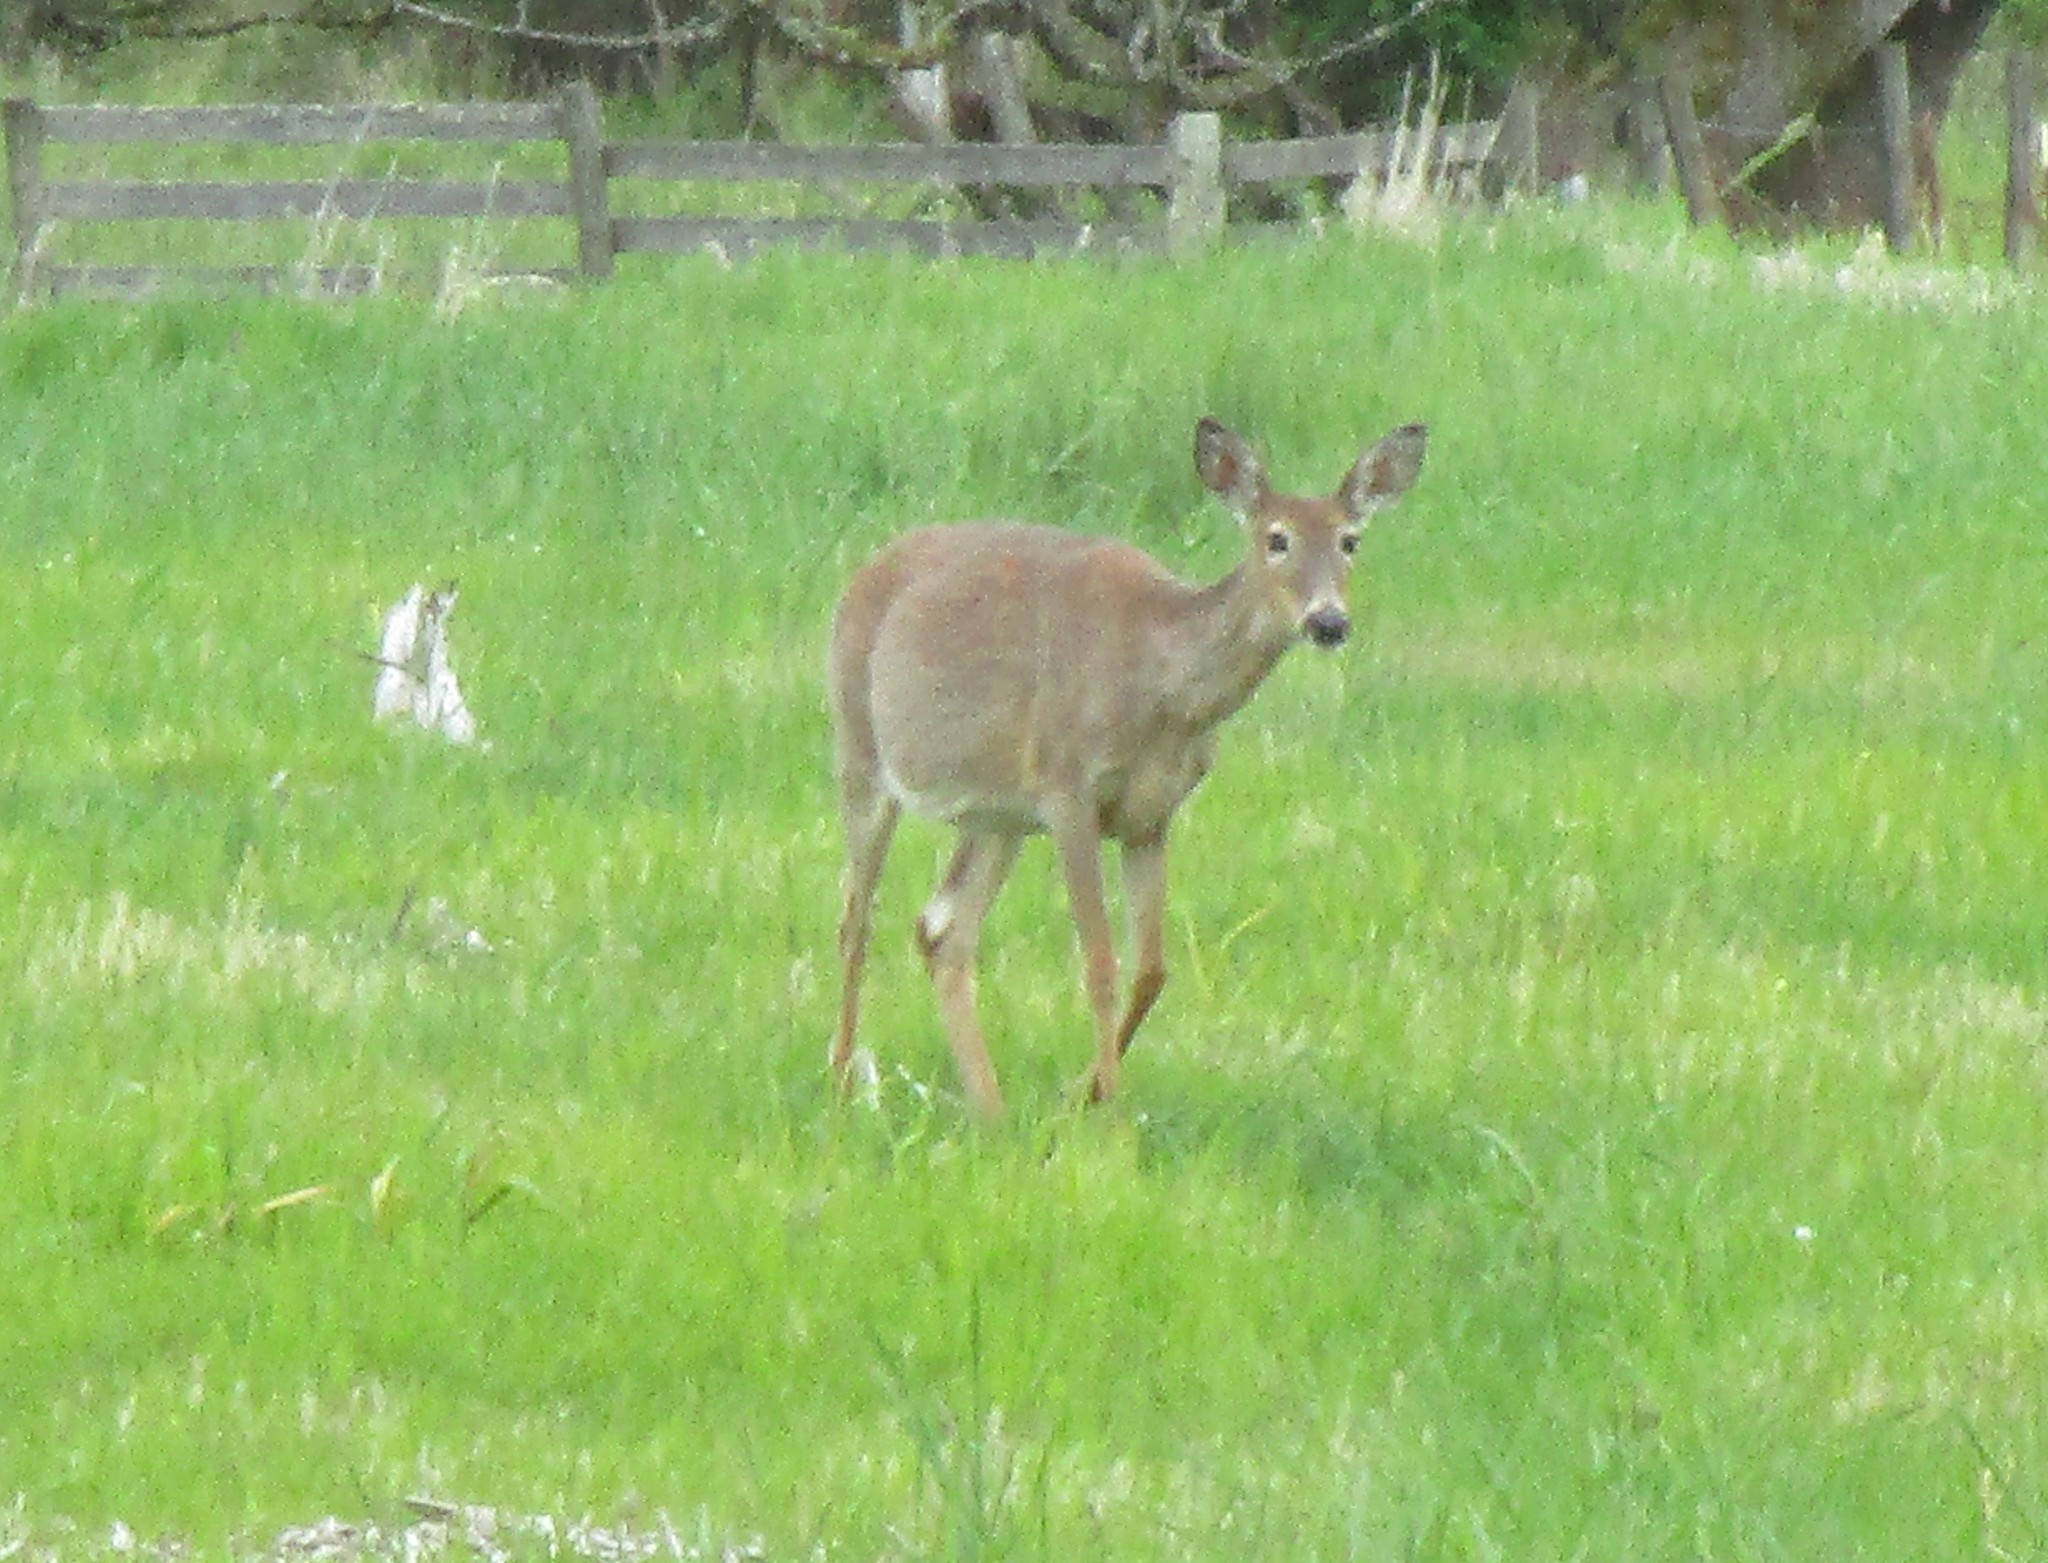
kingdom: Animalia
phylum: Chordata
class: Mammalia
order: Artiodactyla
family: Cervidae
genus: Odocoileus
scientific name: Odocoileus virginianus
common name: White-tailed deer
